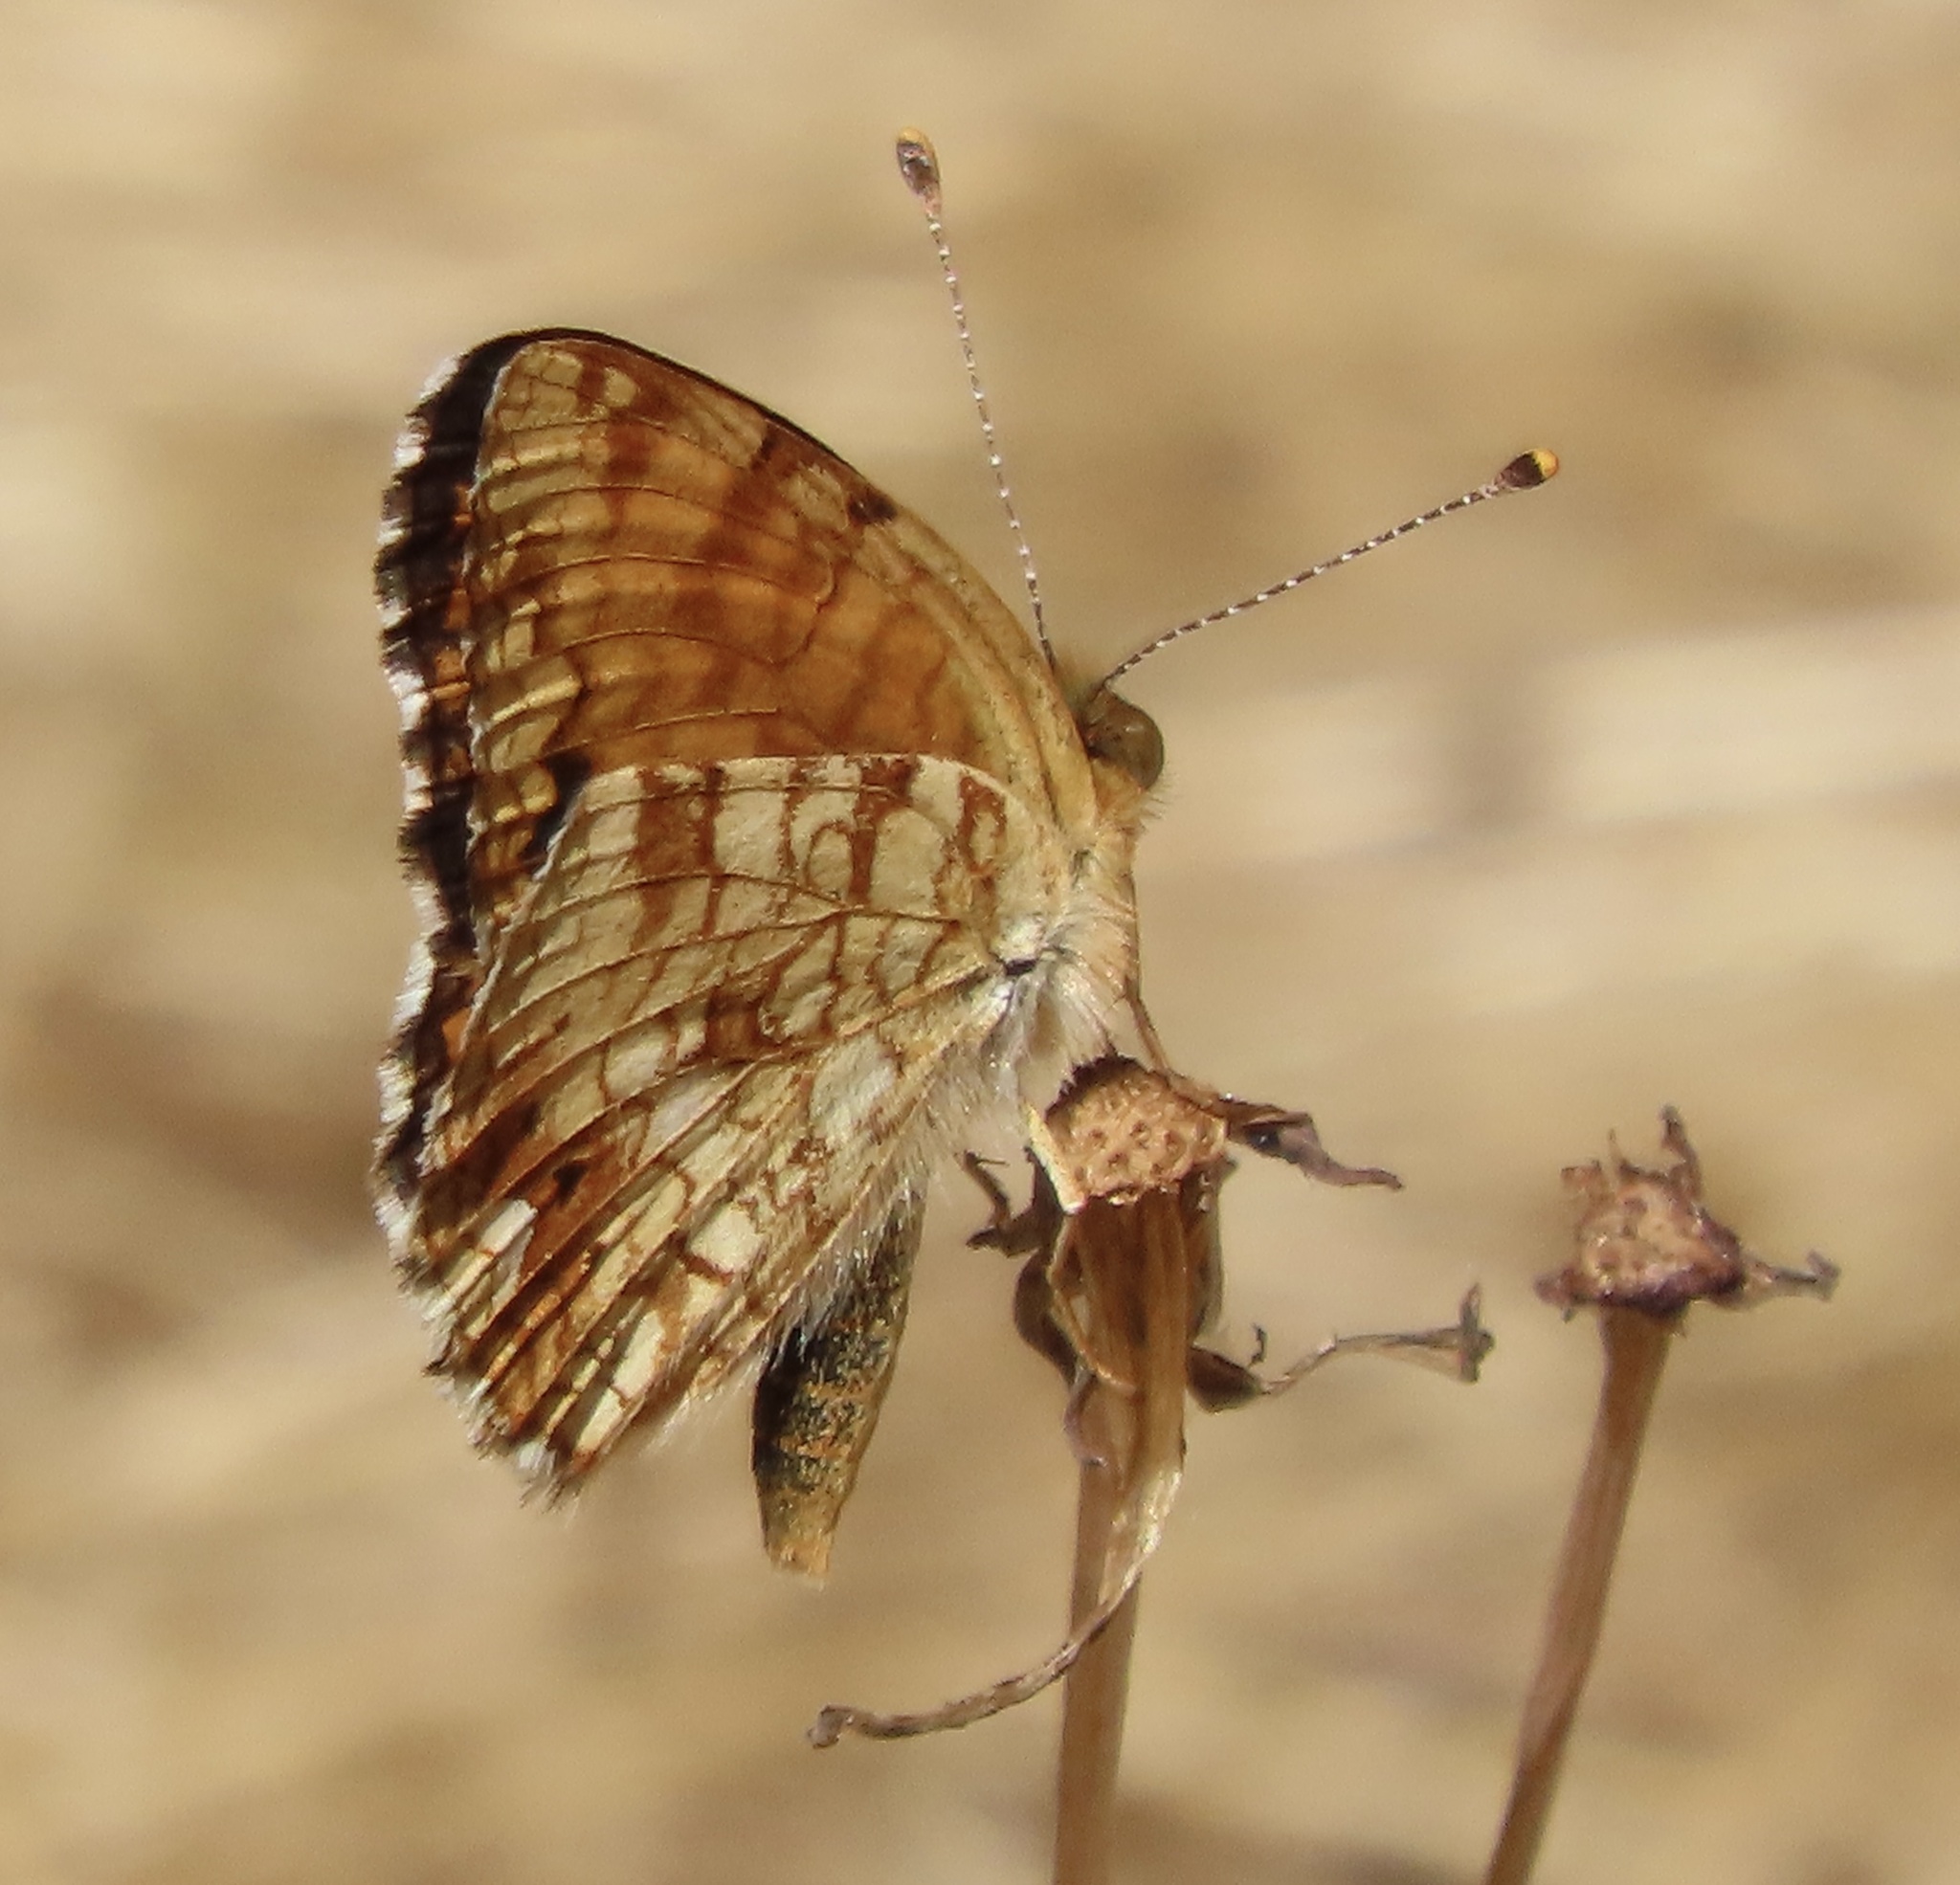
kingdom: Animalia
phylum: Arthropoda
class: Insecta
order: Lepidoptera
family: Nymphalidae
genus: Eresia
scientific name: Eresia aveyrona
